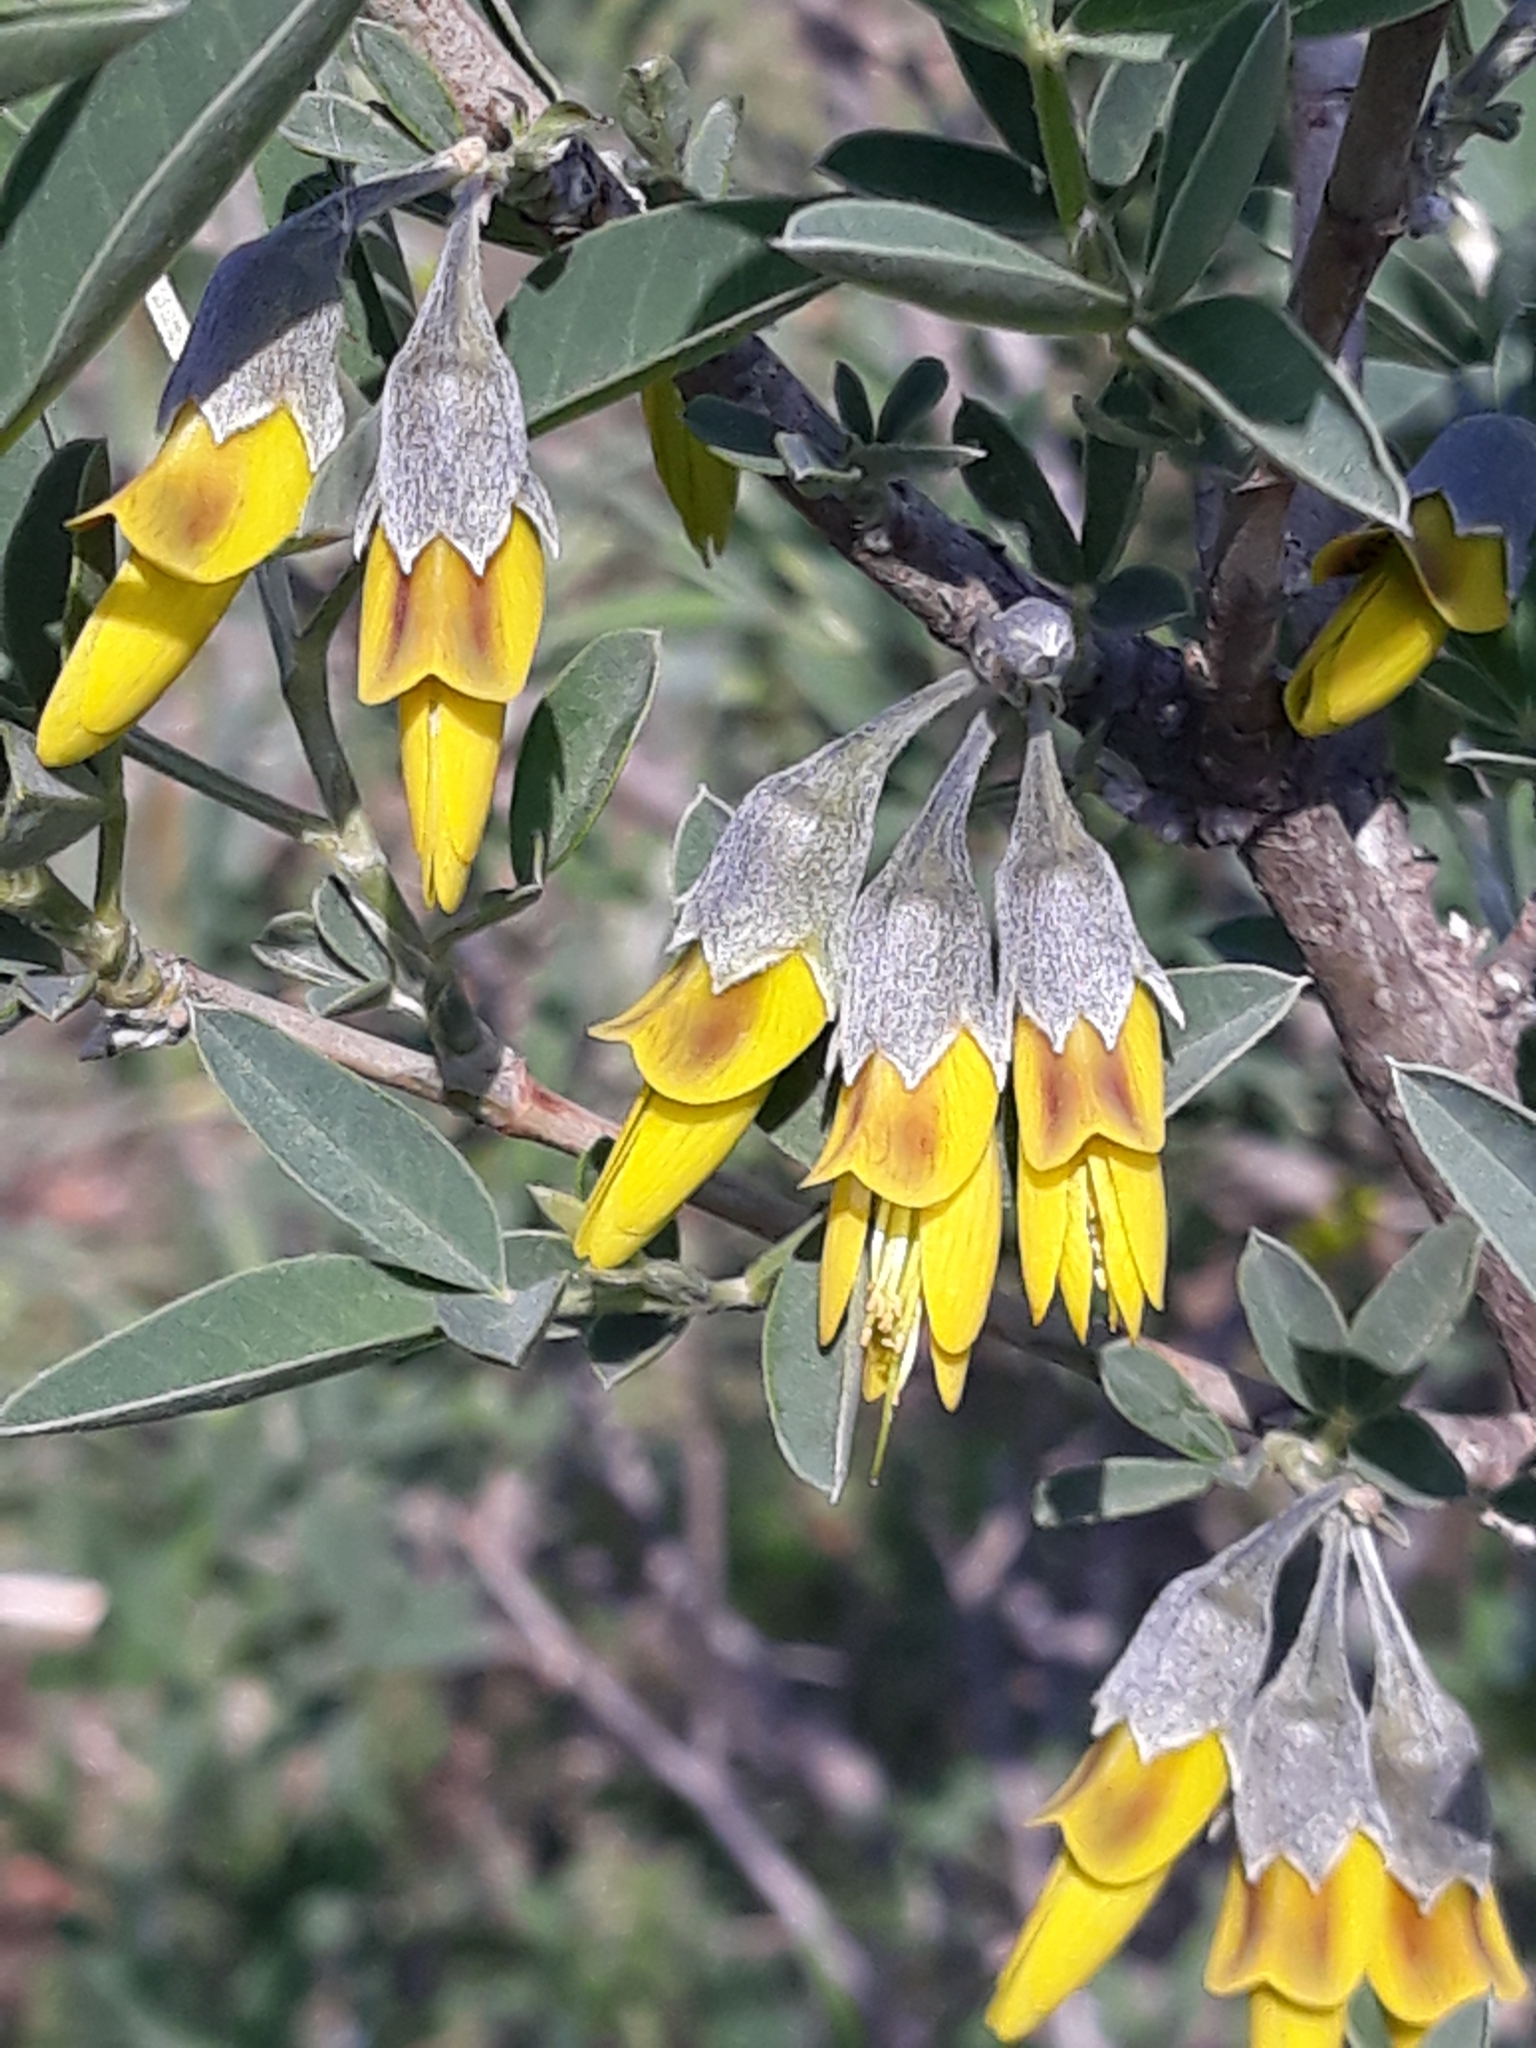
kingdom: Plantae
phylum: Tracheophyta
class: Magnoliopsida
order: Fabales
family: Fabaceae
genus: Anagyris
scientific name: Anagyris foetida
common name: Stinking bean trefoil
